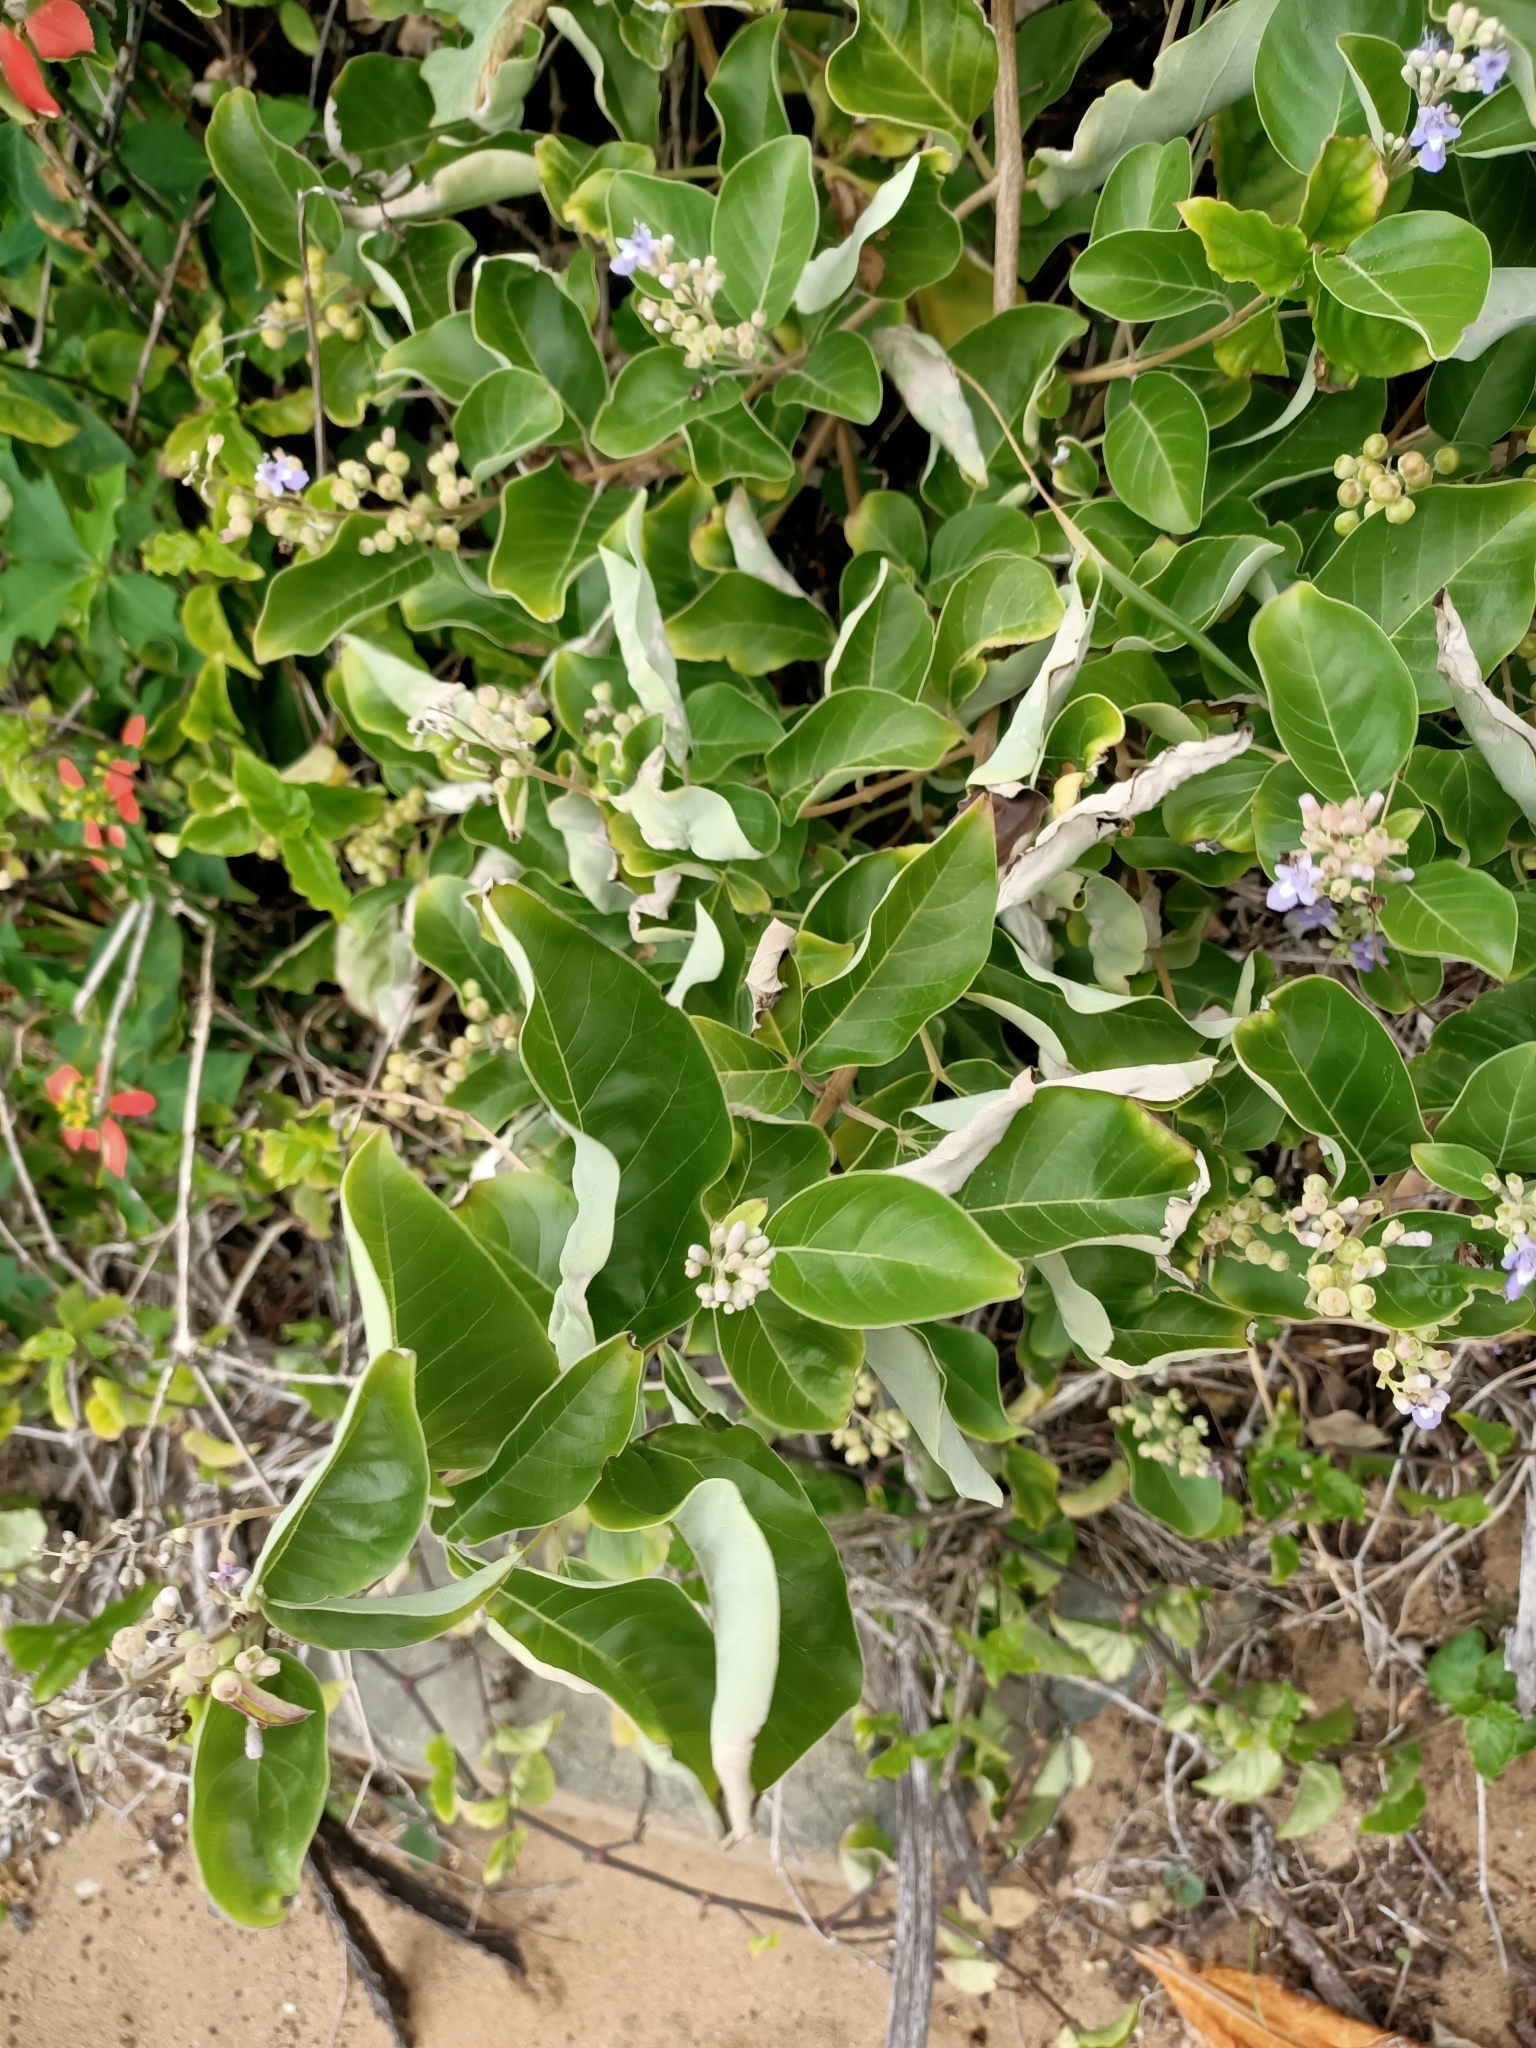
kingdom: Plantae
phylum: Tracheophyta
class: Magnoliopsida
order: Lamiales
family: Lamiaceae
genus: Vitex
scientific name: Vitex rotundifolia
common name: Beach vitex
